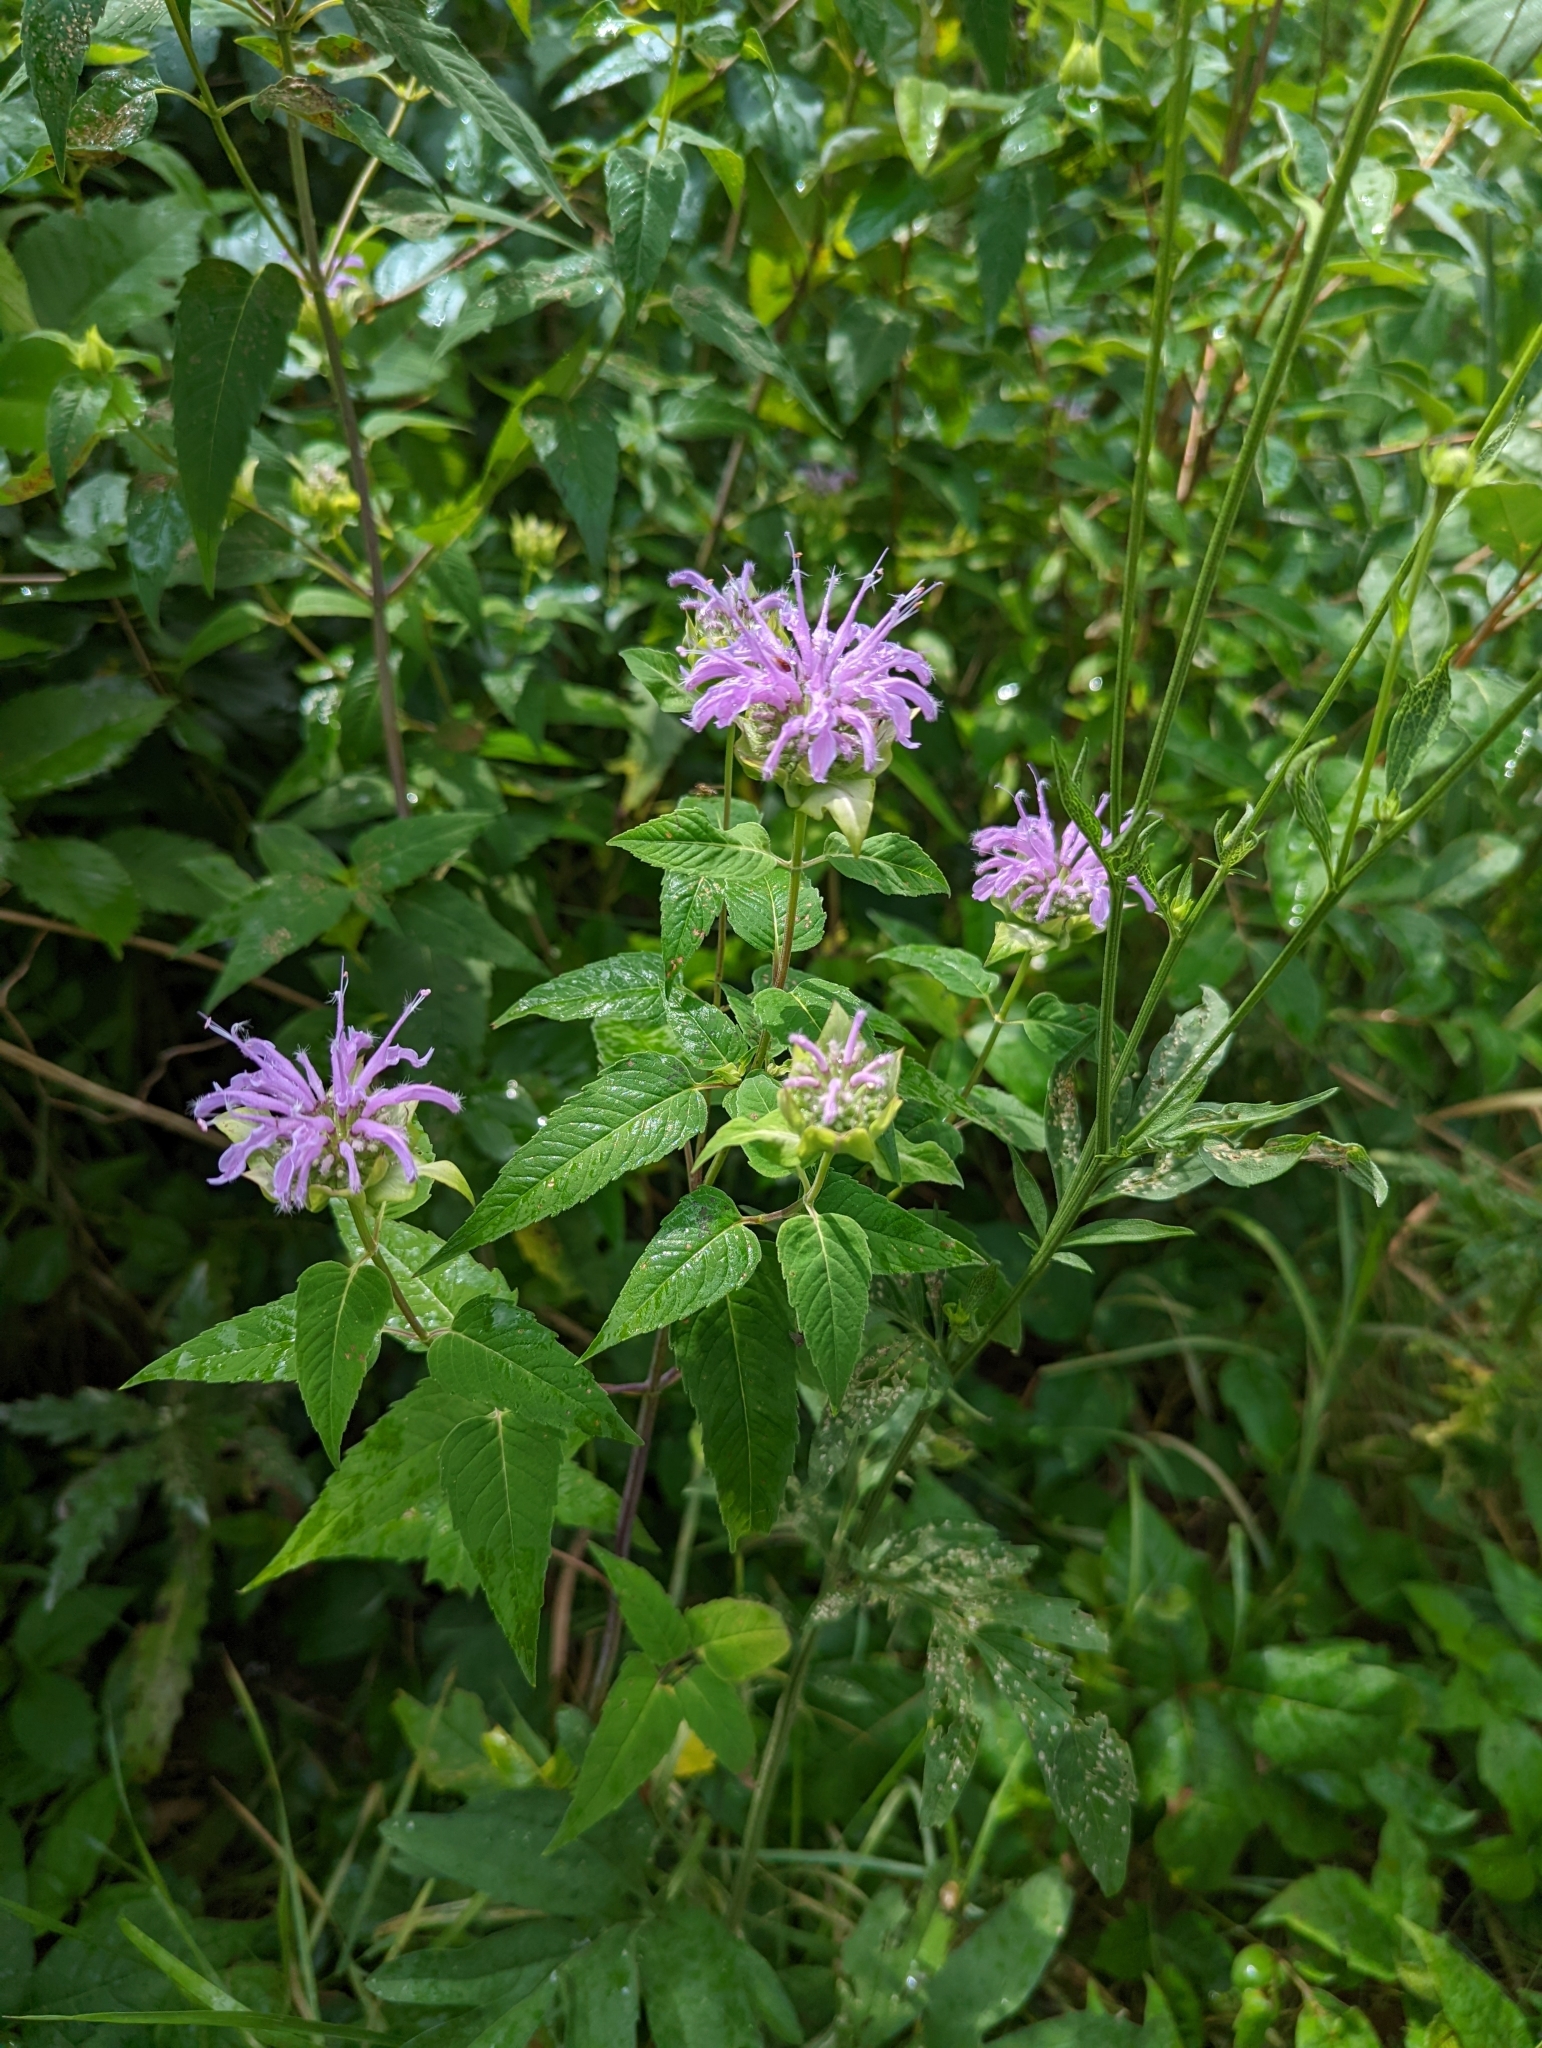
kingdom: Plantae
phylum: Tracheophyta
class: Magnoliopsida
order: Lamiales
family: Lamiaceae
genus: Monarda
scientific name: Monarda fistulosa
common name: Purple beebalm
